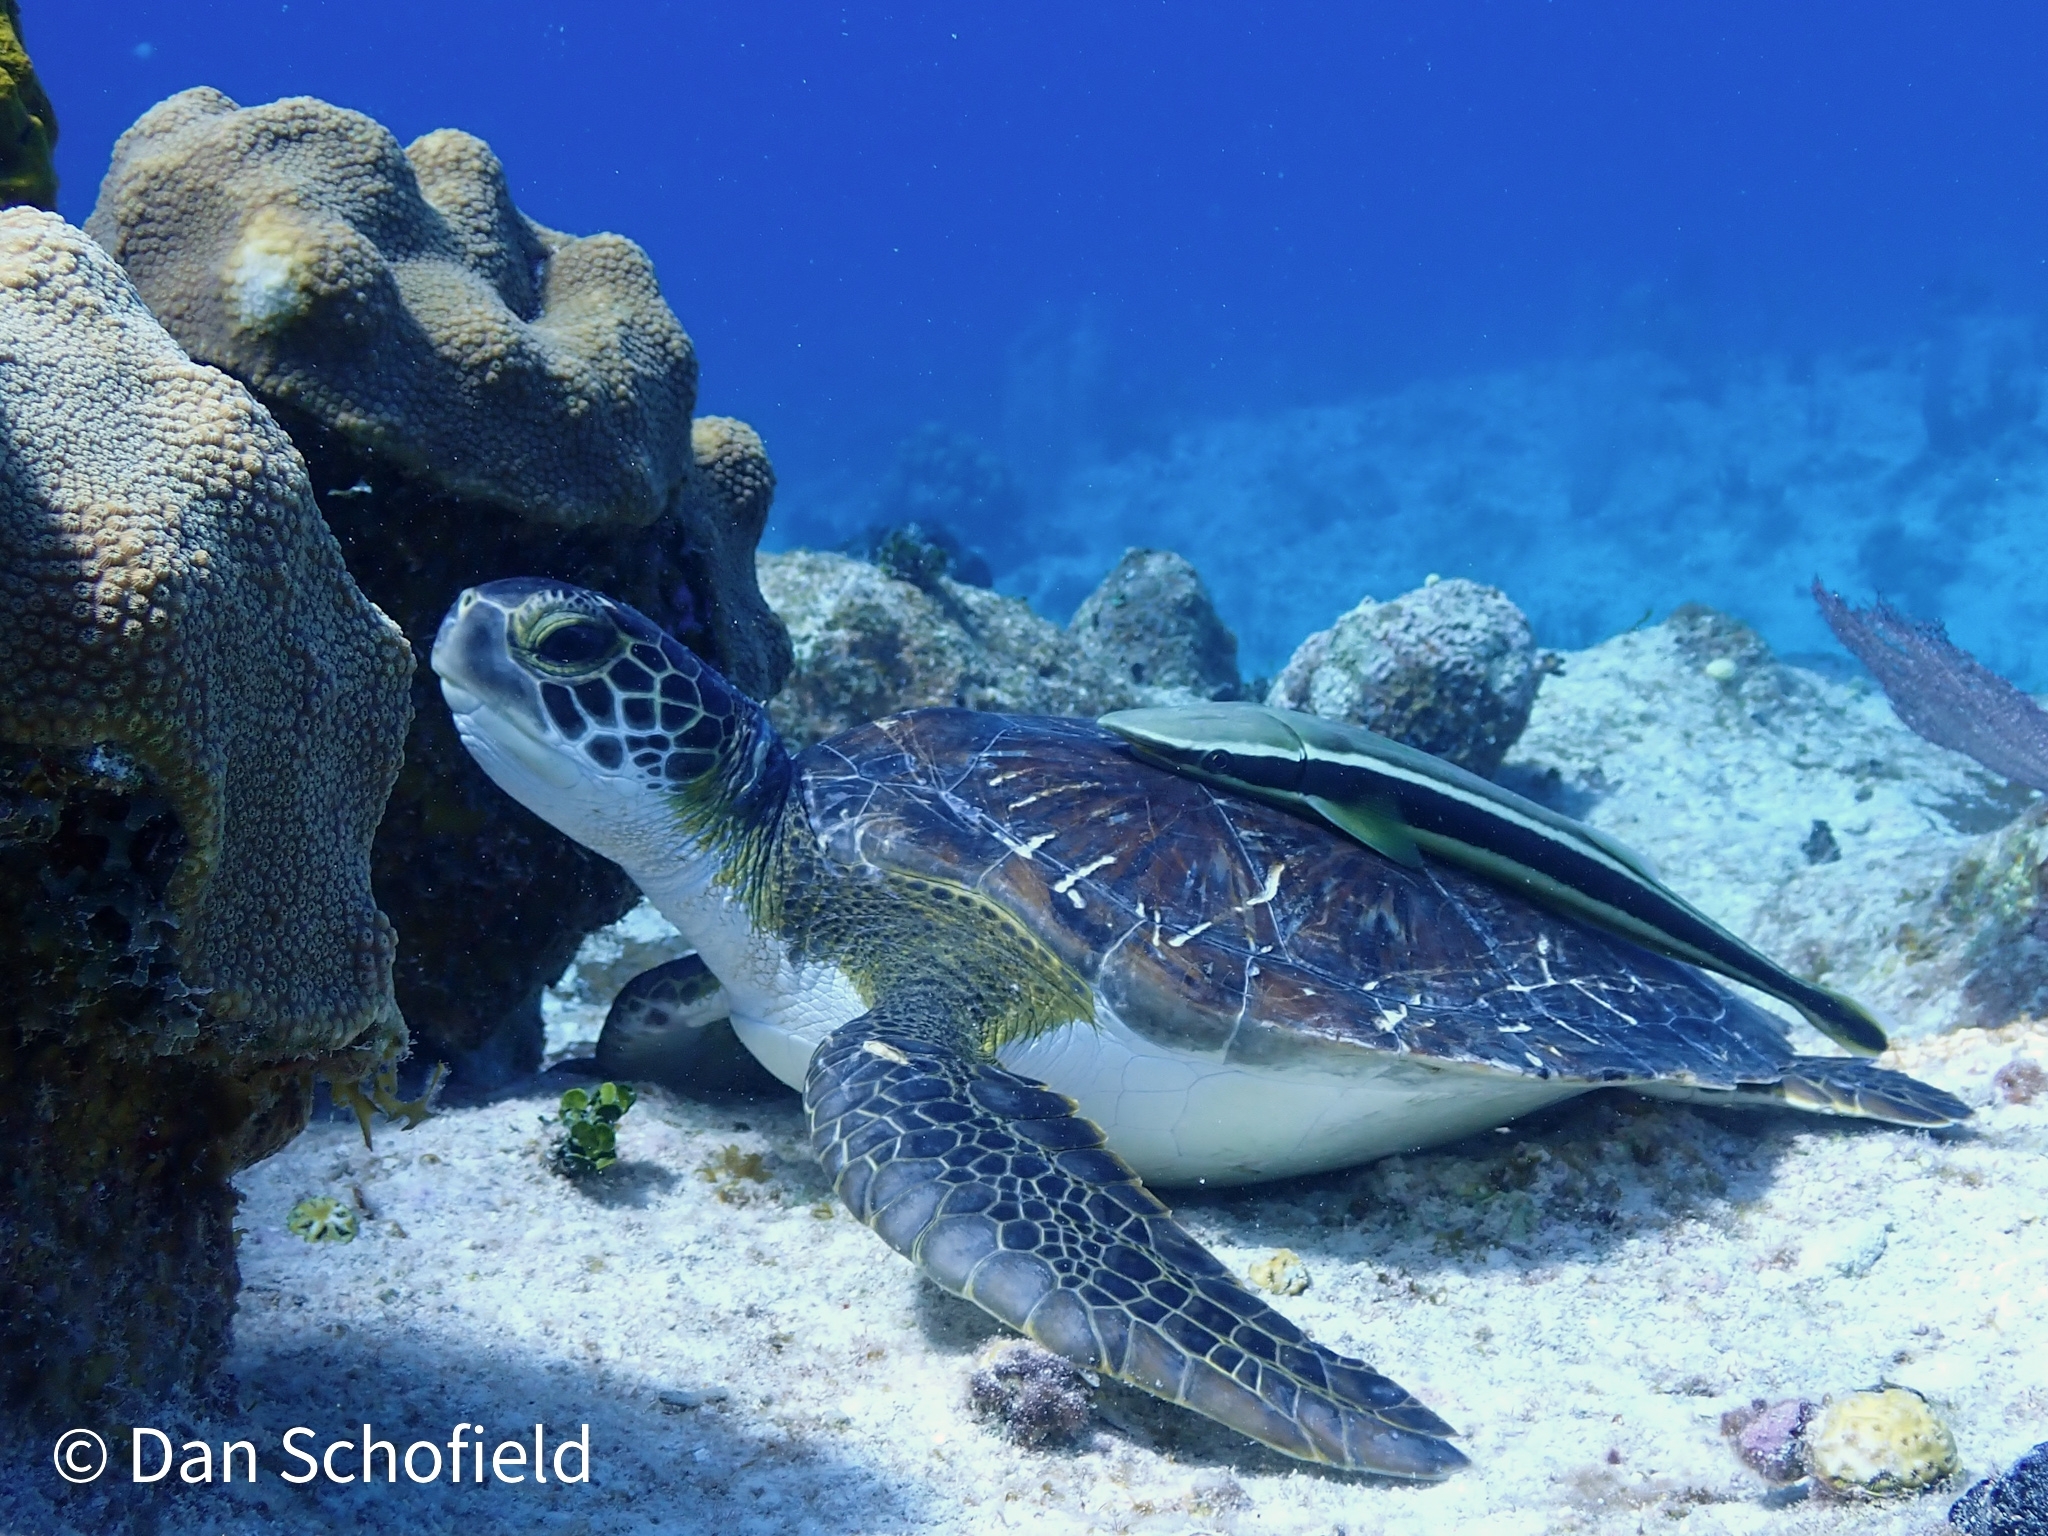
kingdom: Animalia
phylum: Chordata
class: Testudines
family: Cheloniidae
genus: Chelonia
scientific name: Chelonia mydas
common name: Green turtle
